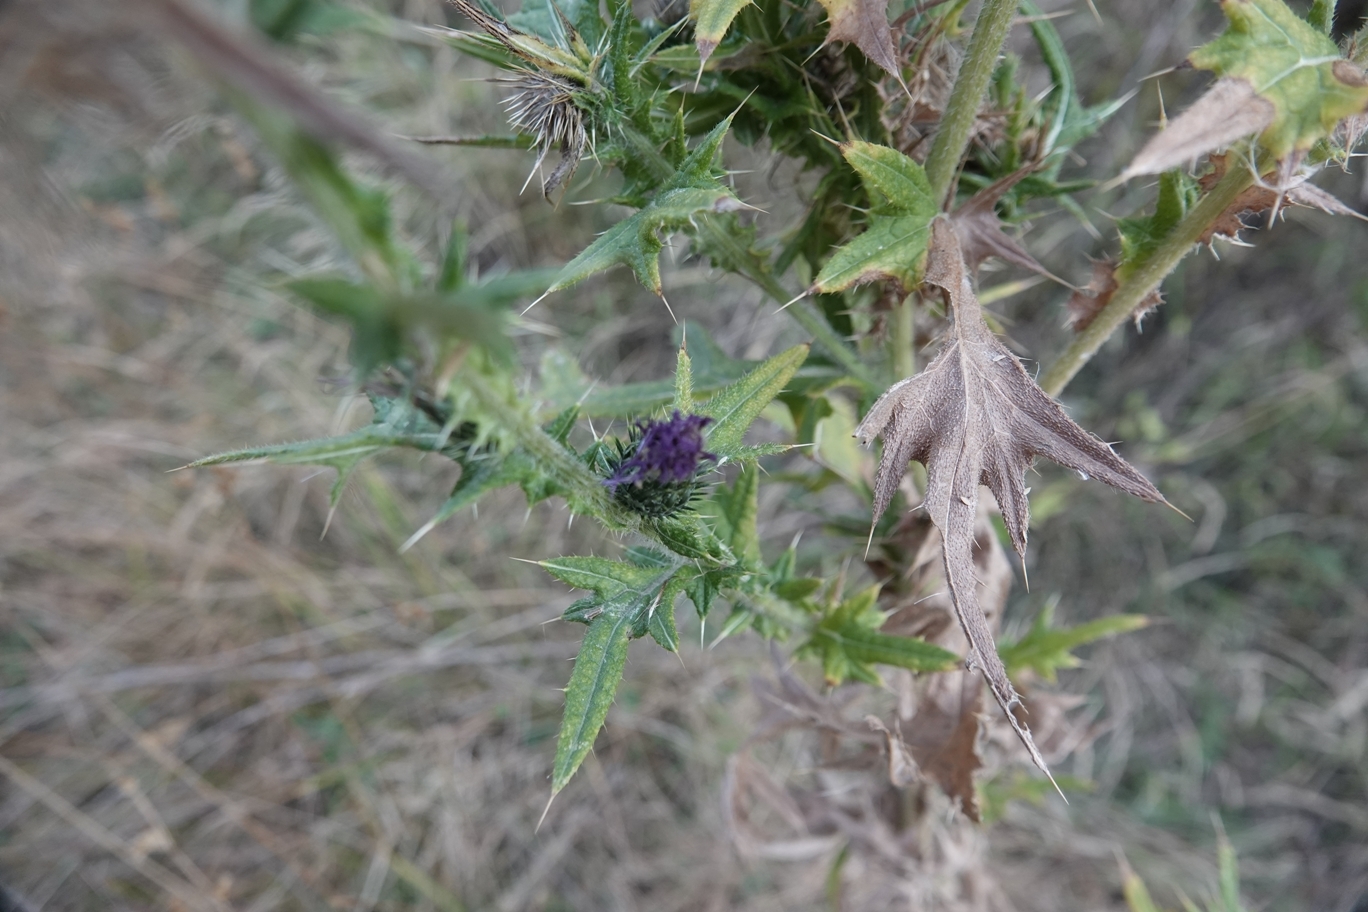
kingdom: Plantae
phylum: Tracheophyta
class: Magnoliopsida
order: Asterales
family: Asteraceae
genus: Cirsium
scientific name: Cirsium vulgare
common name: Bull thistle
